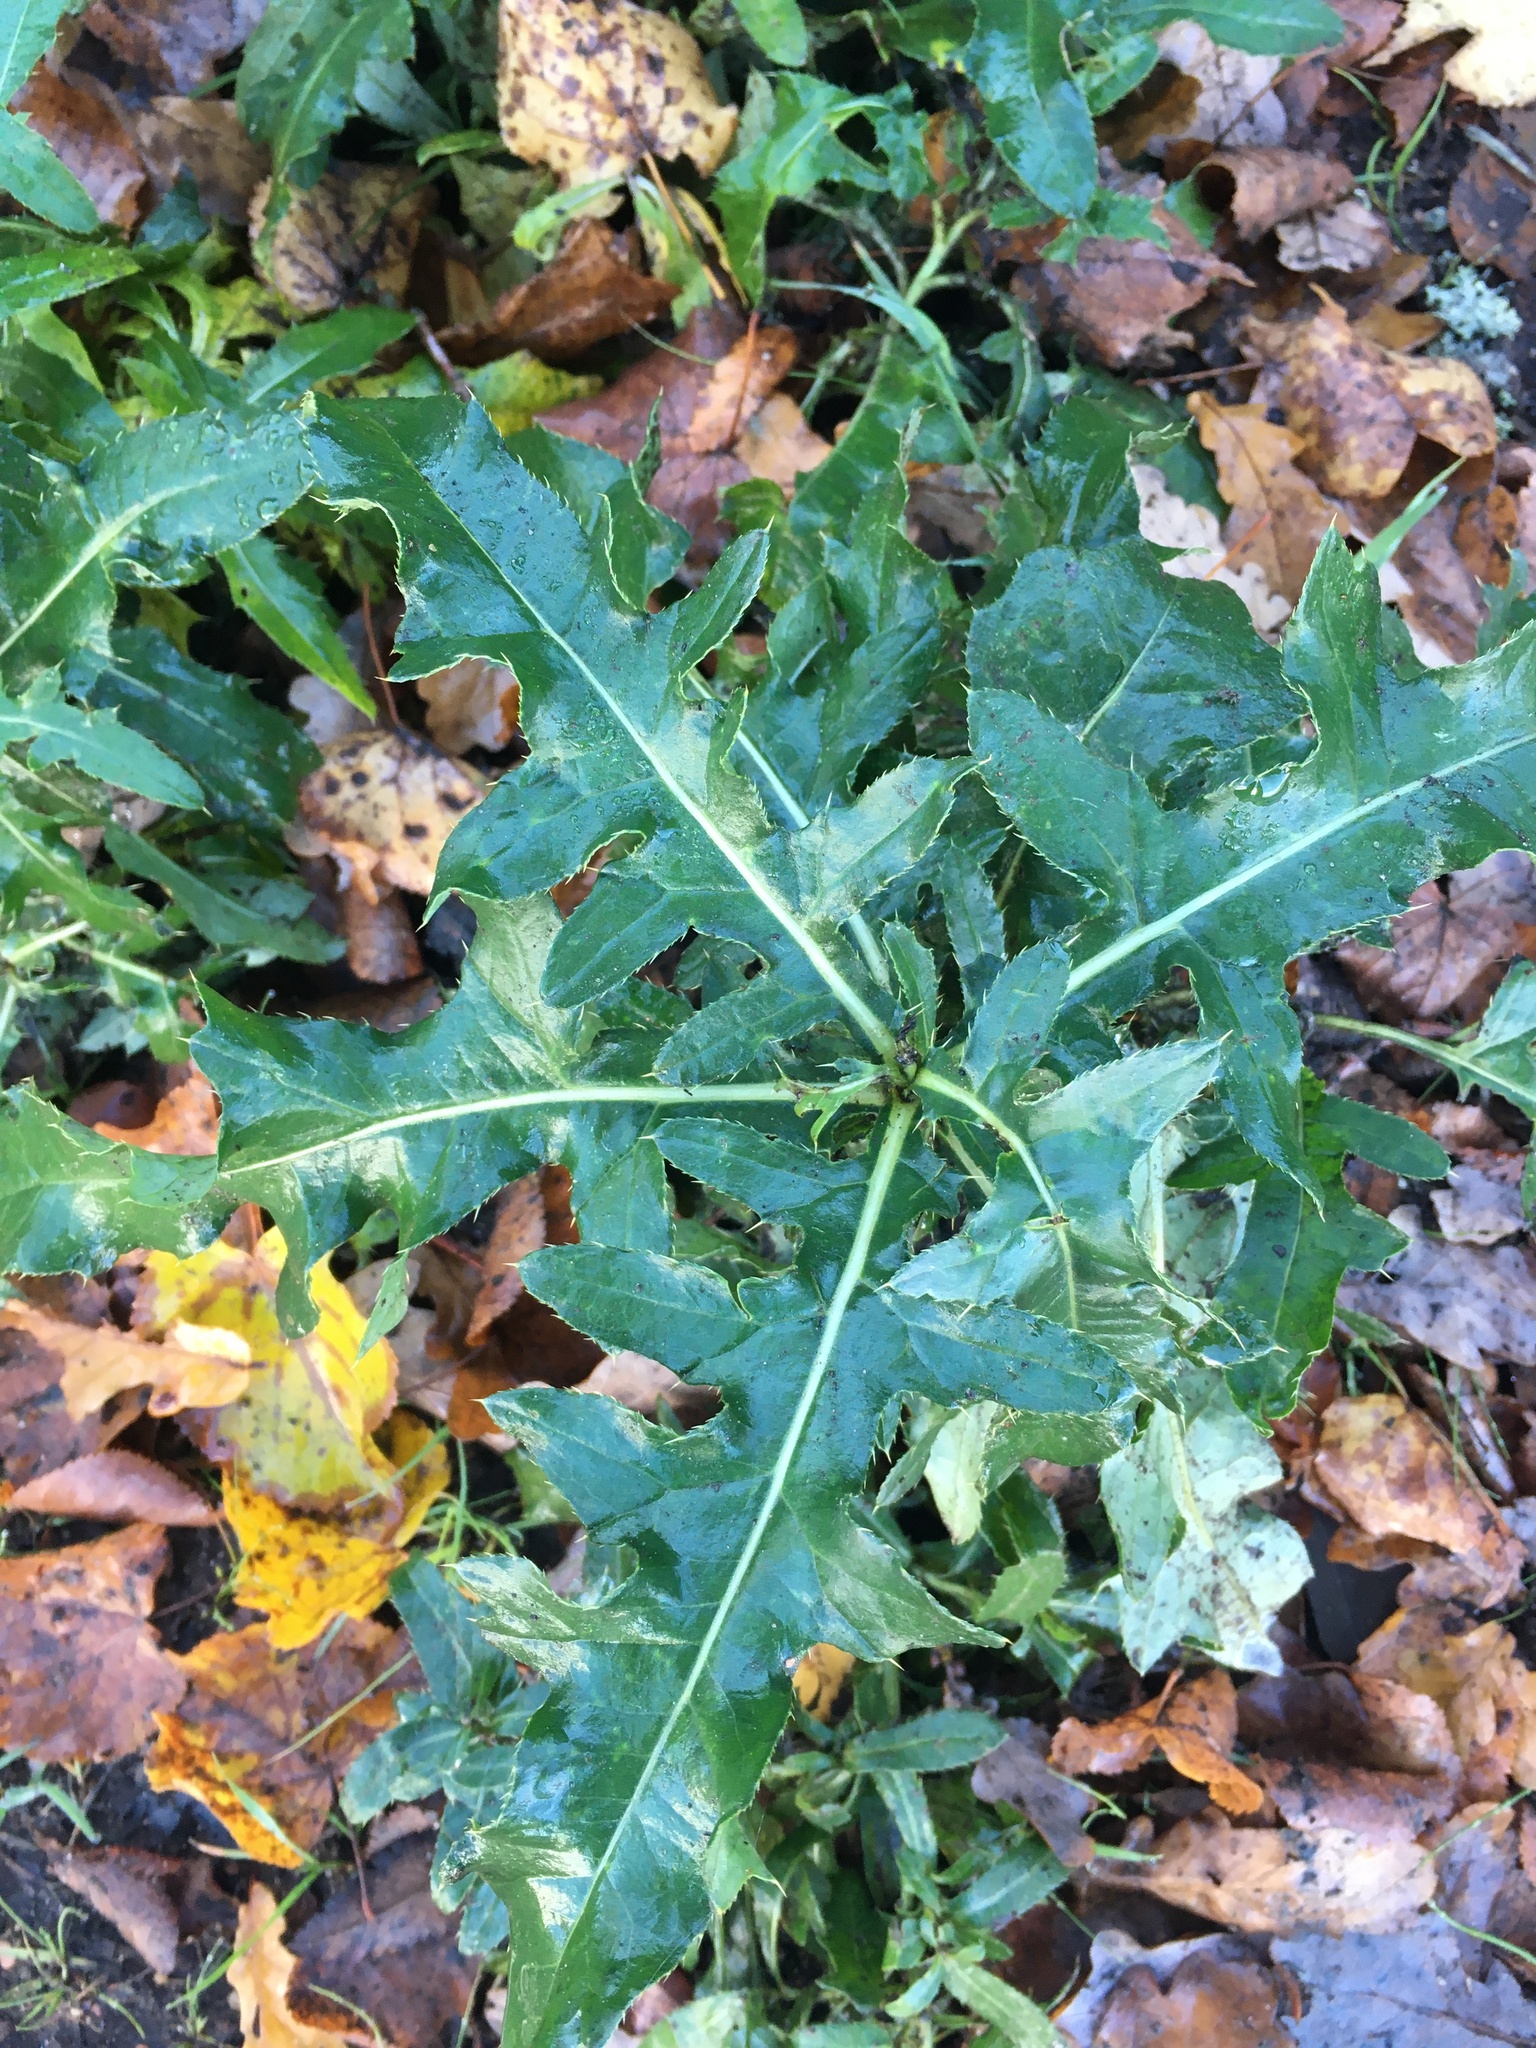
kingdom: Plantae
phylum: Tracheophyta
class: Magnoliopsida
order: Asterales
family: Asteraceae
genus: Cirsium
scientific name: Cirsium arvense
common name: Creeping thistle
